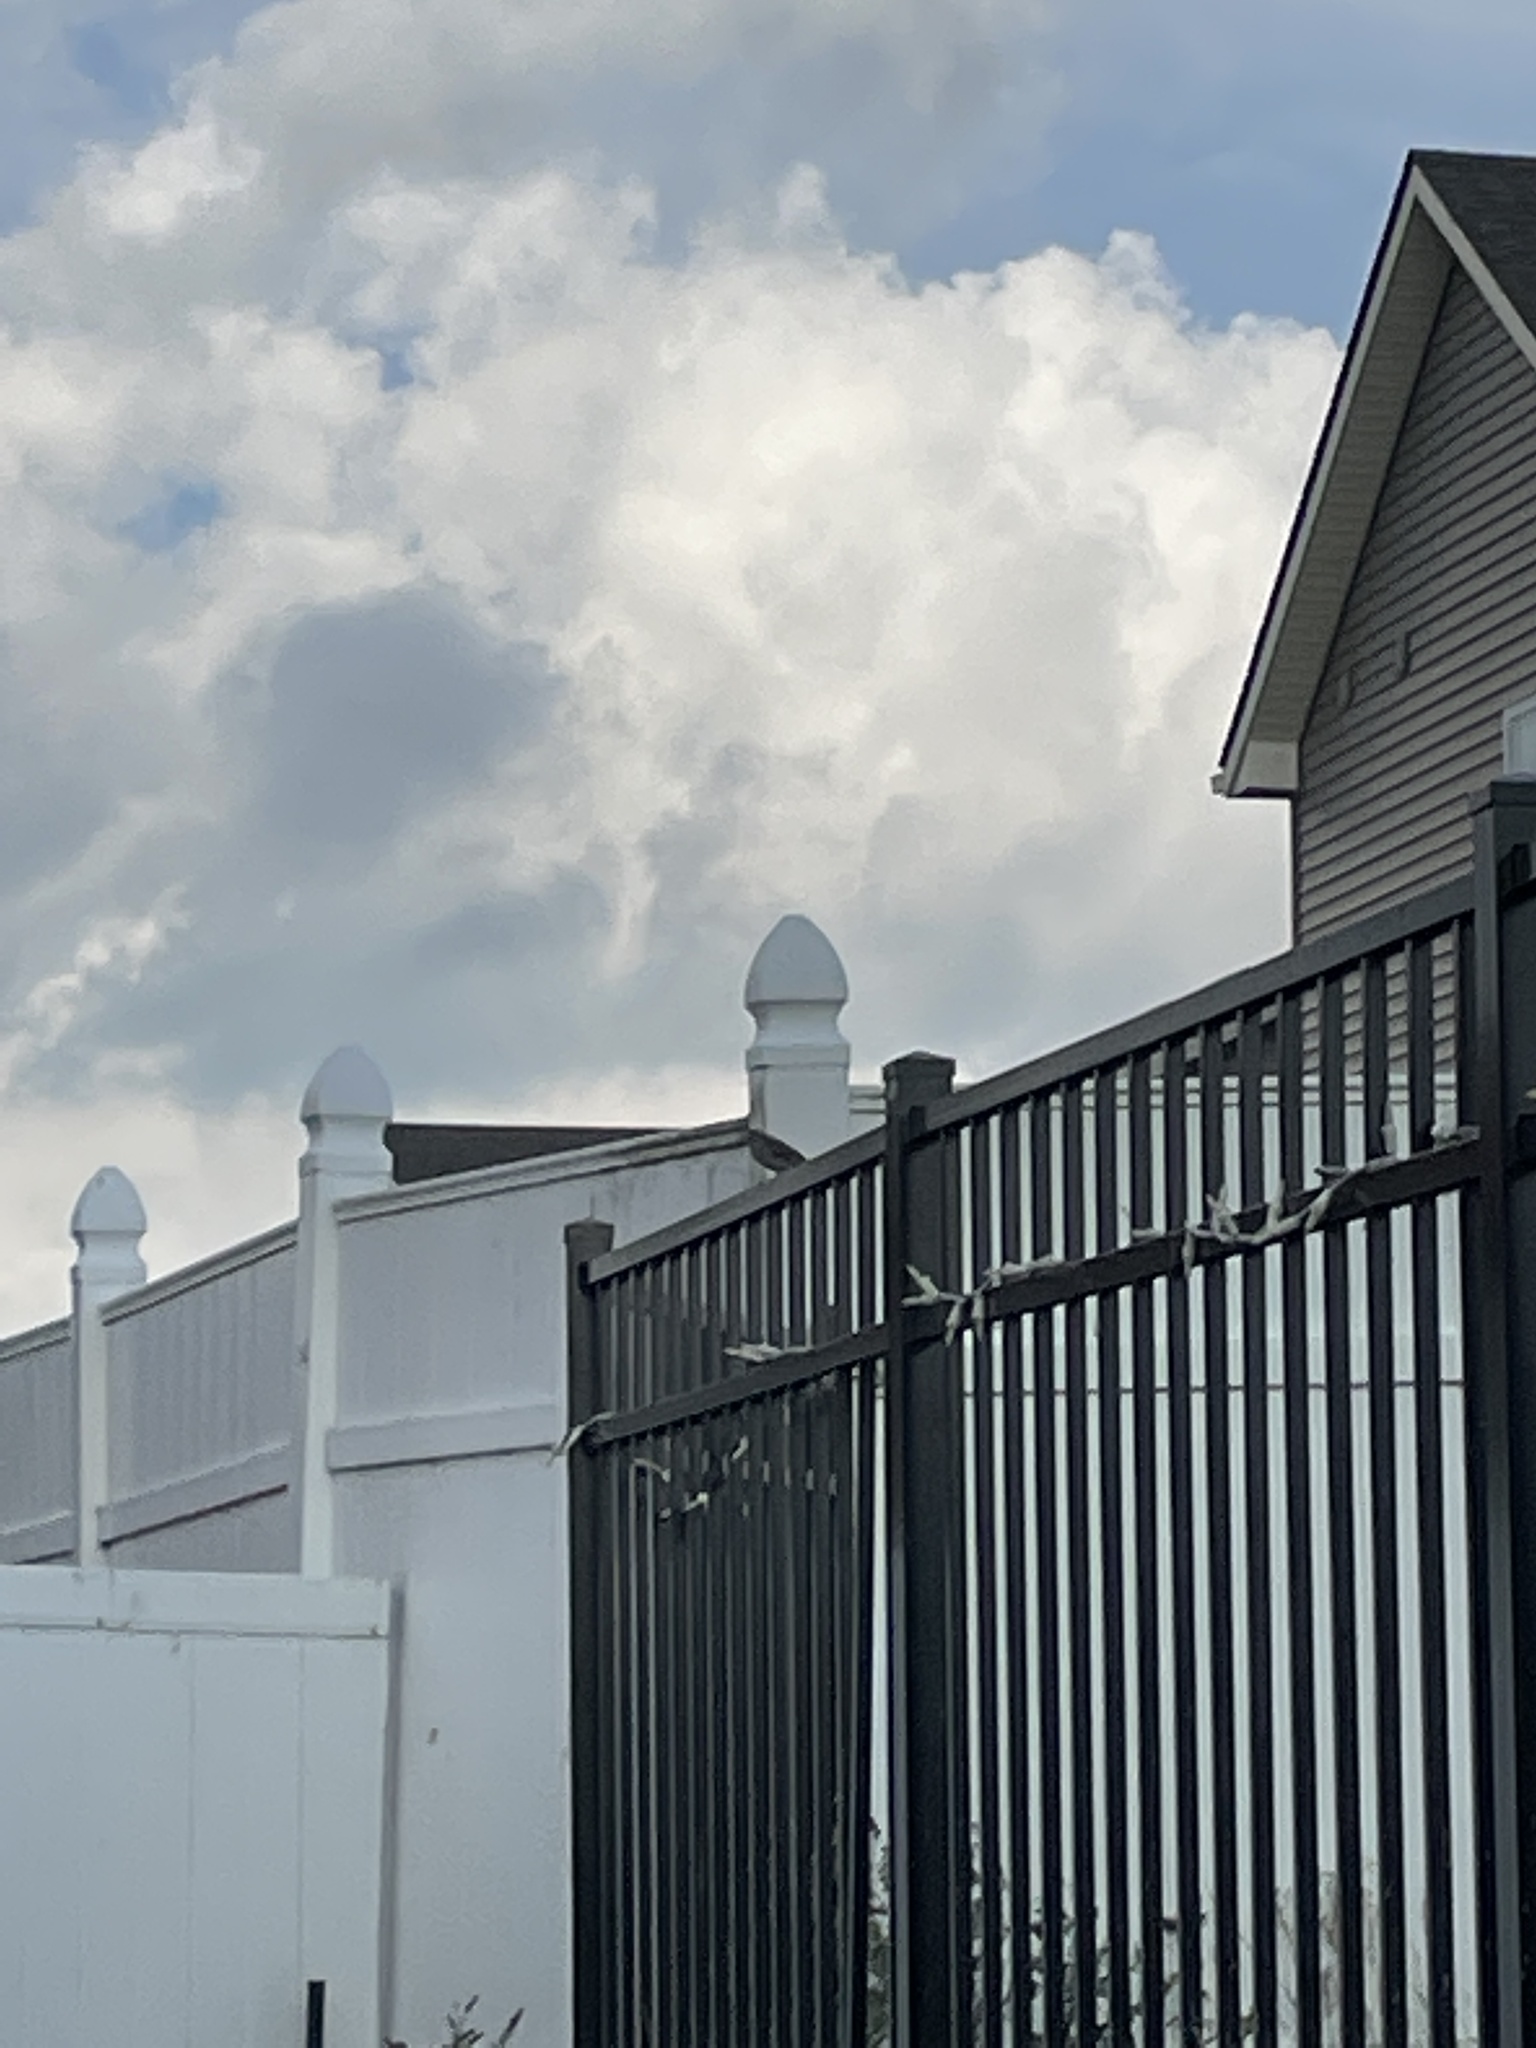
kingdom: Animalia
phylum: Chordata
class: Aves
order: Passeriformes
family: Sturnidae
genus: Sturnus
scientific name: Sturnus vulgaris
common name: Common starling
